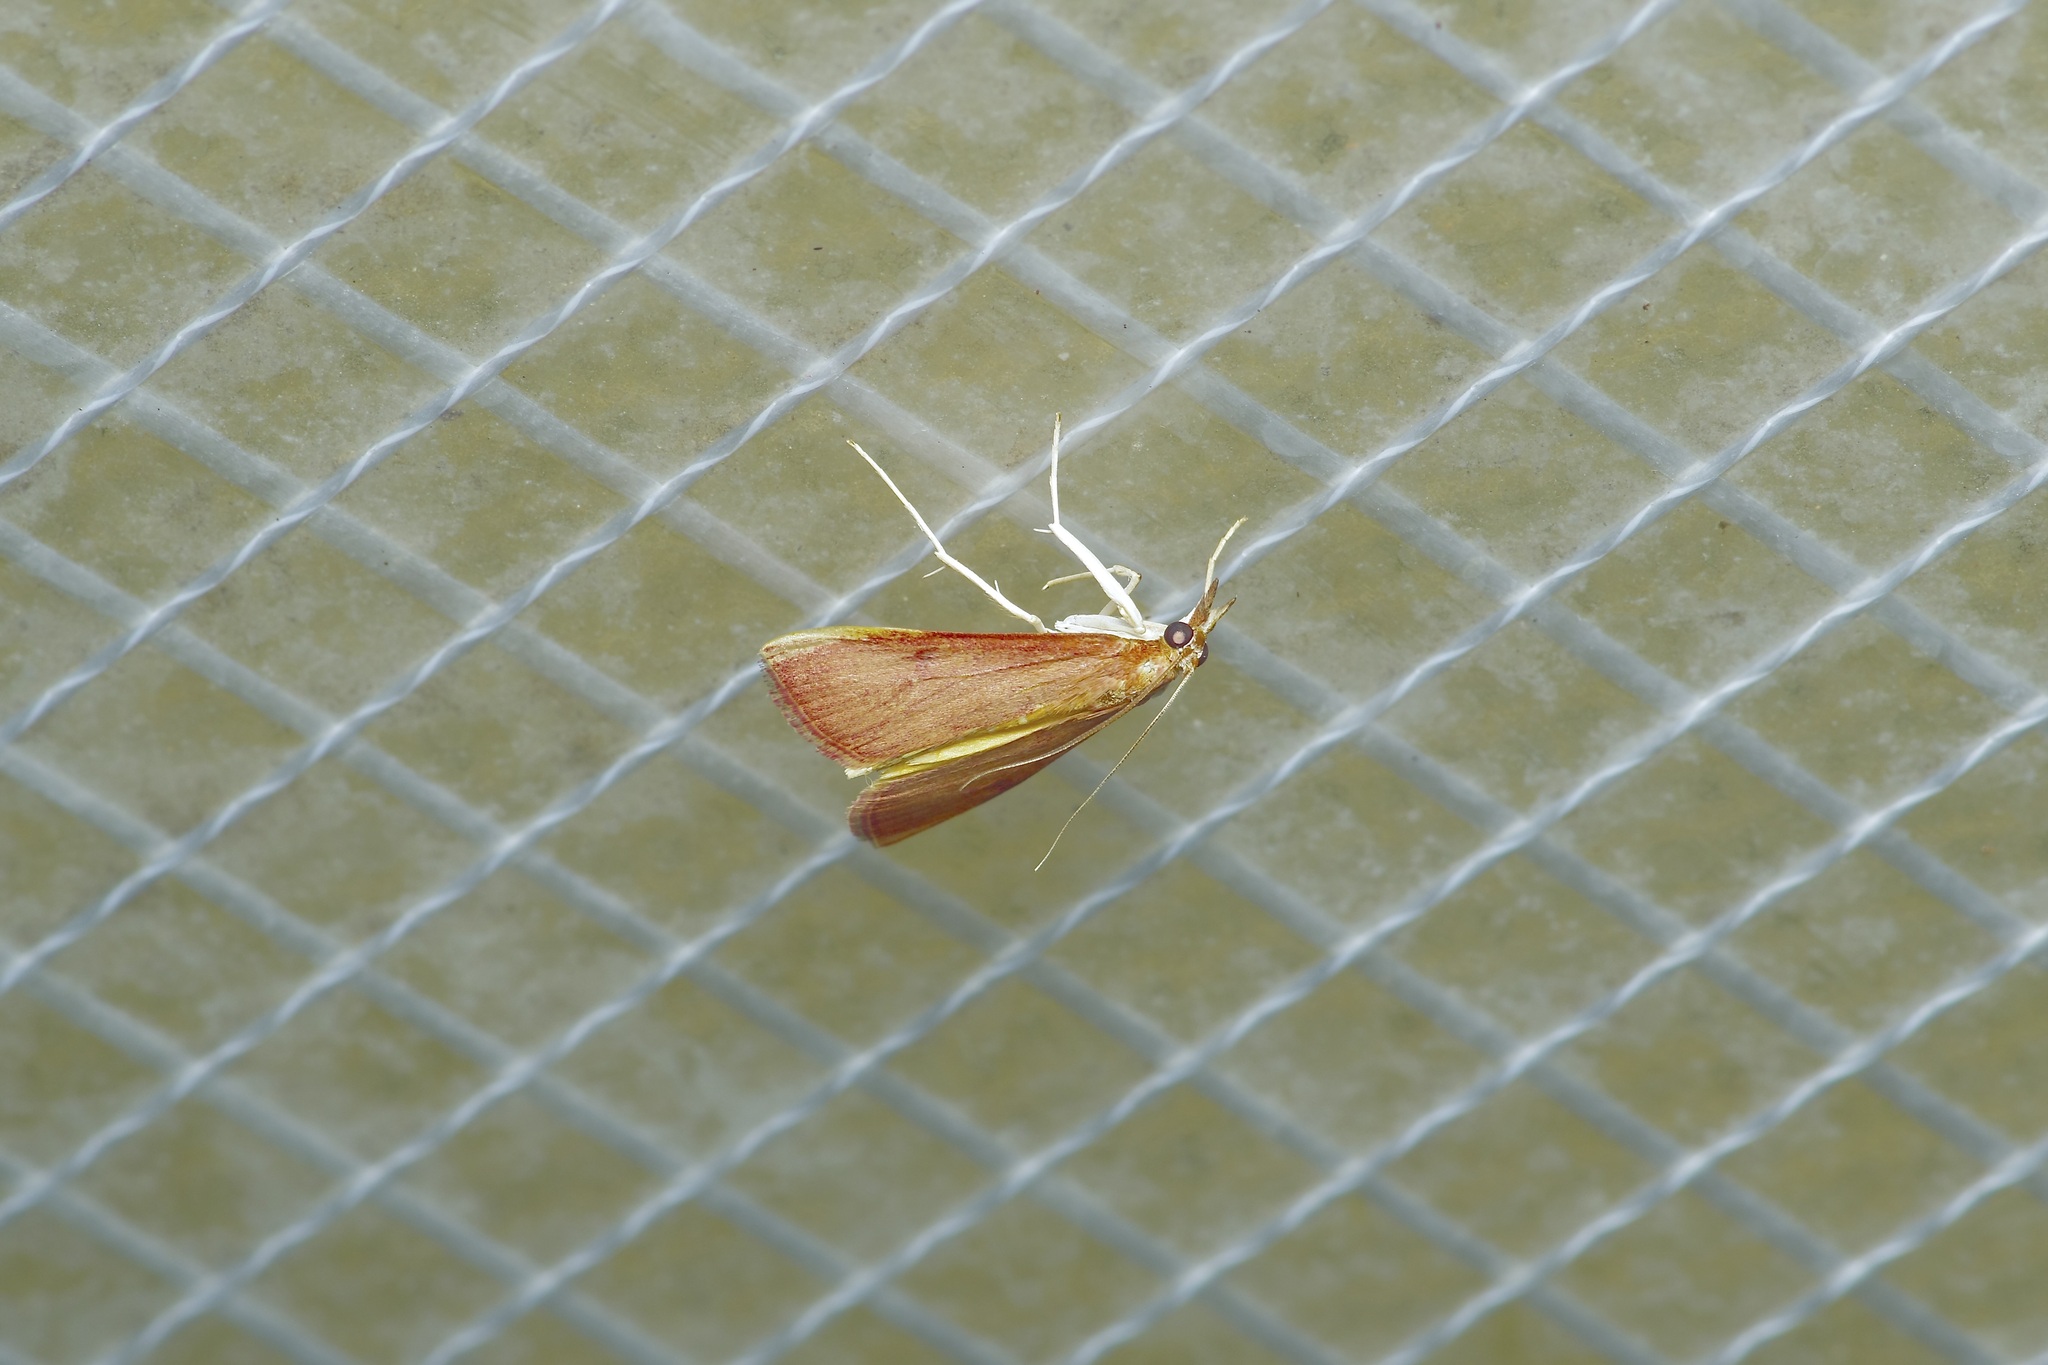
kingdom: Animalia
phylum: Arthropoda
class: Insecta
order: Lepidoptera
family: Crambidae
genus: Uresiphita
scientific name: Uresiphita reversalis
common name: Genista broom moth
